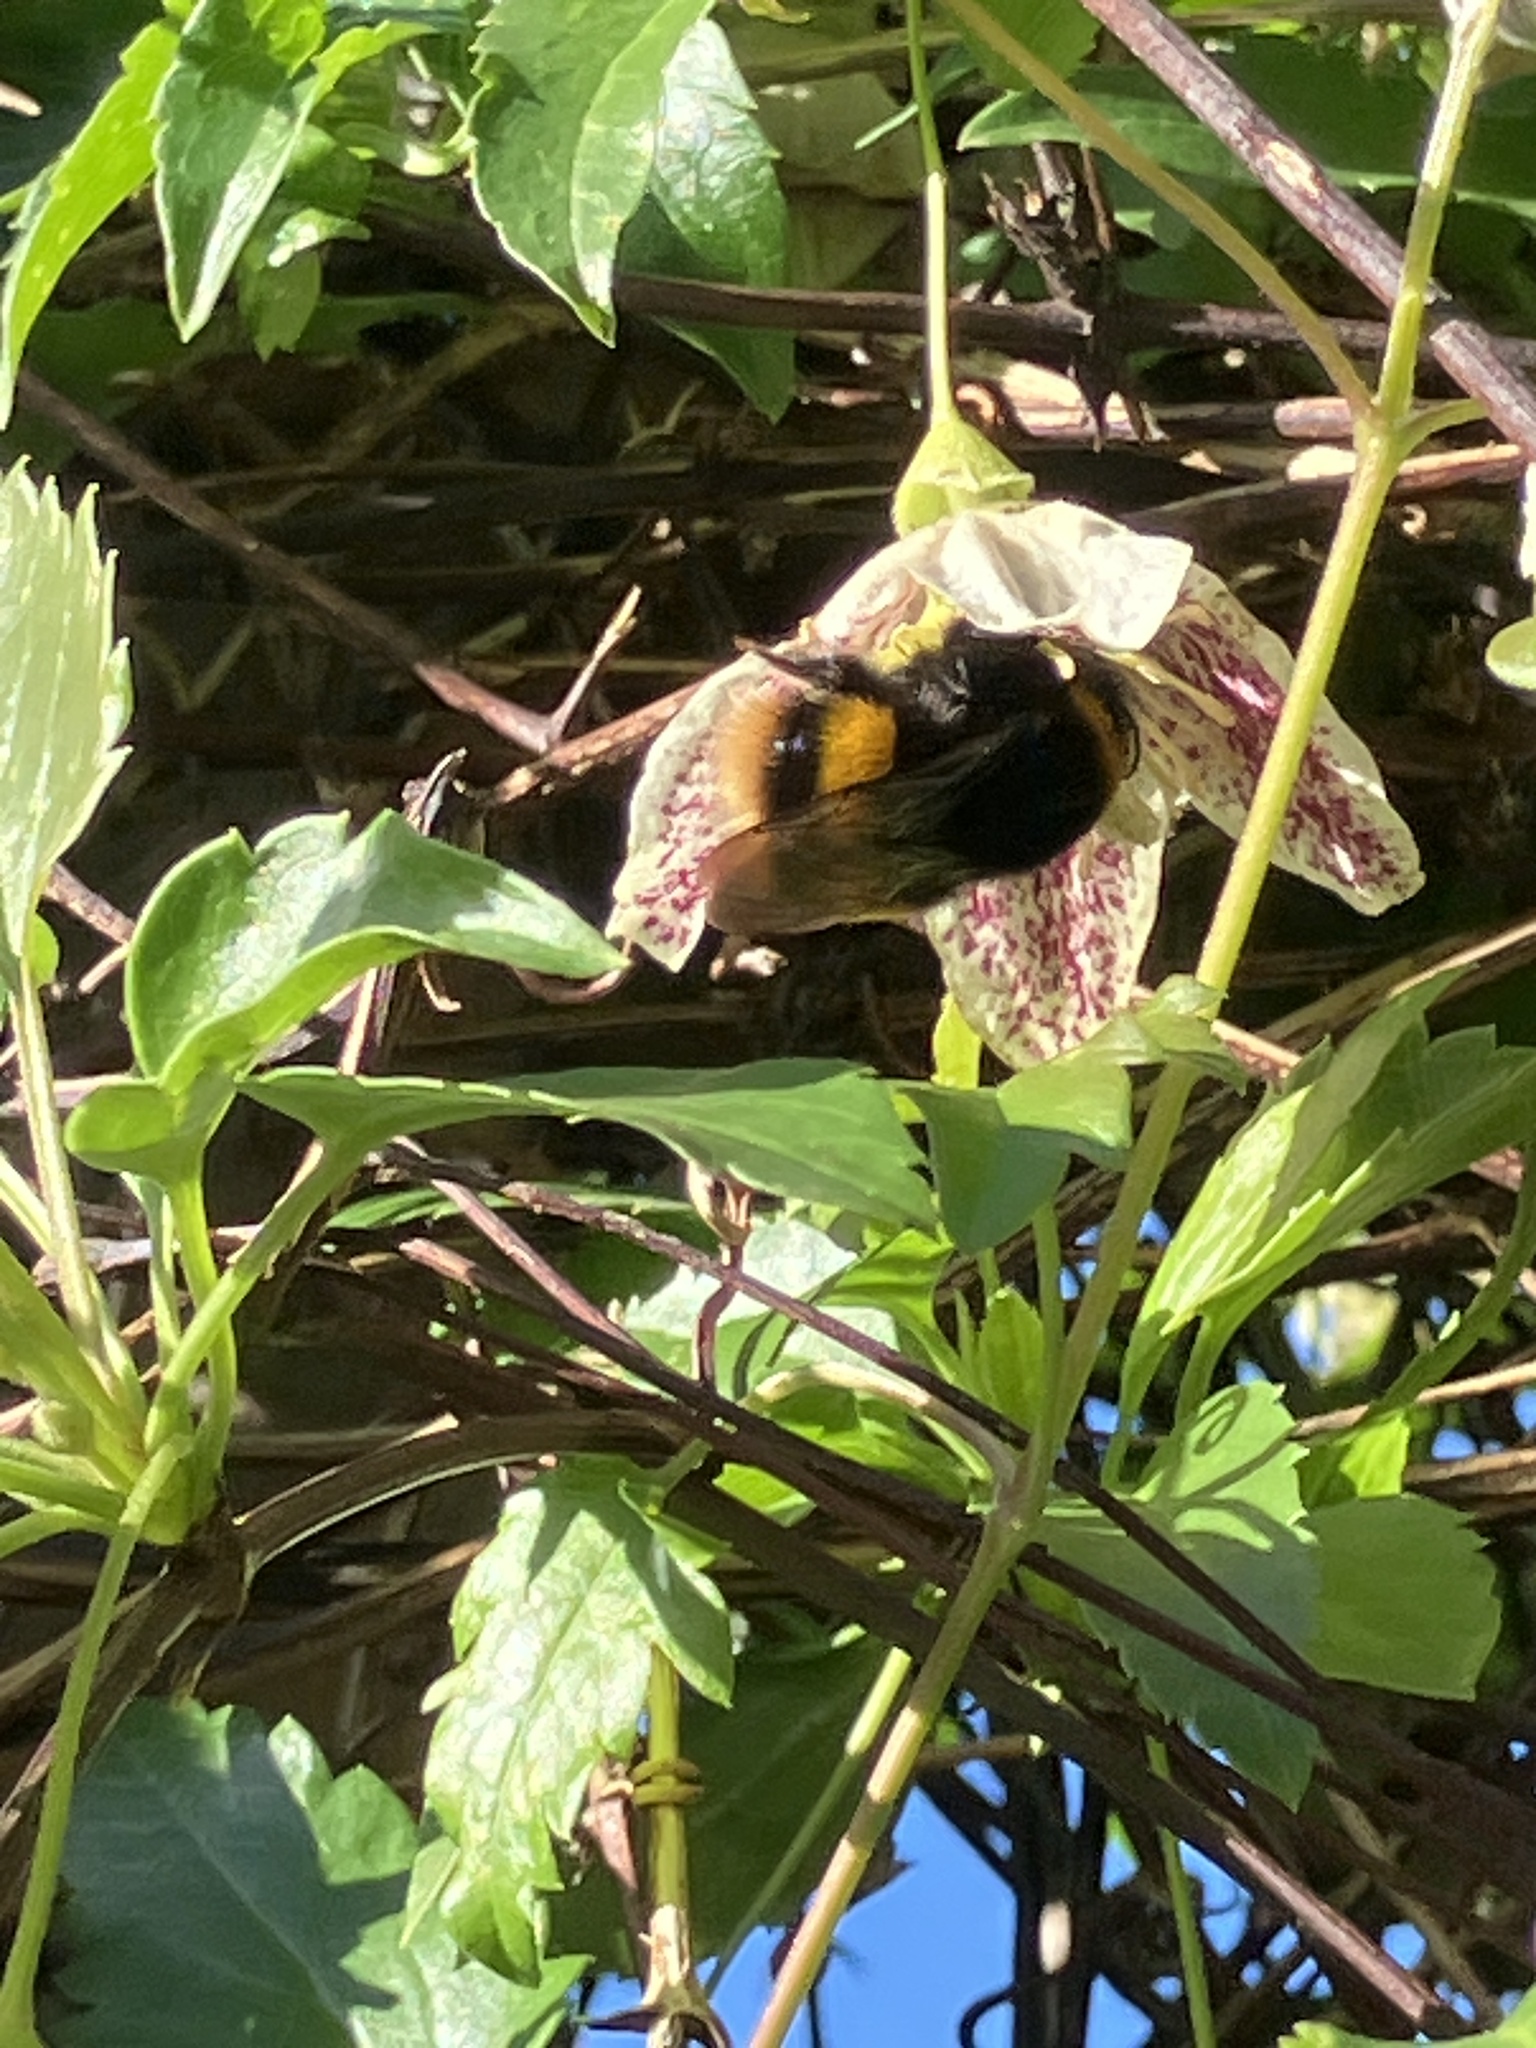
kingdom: Animalia
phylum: Arthropoda
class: Insecta
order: Hymenoptera
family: Apidae
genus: Bombus
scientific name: Bombus terrestris
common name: Buff-tailed bumblebee
